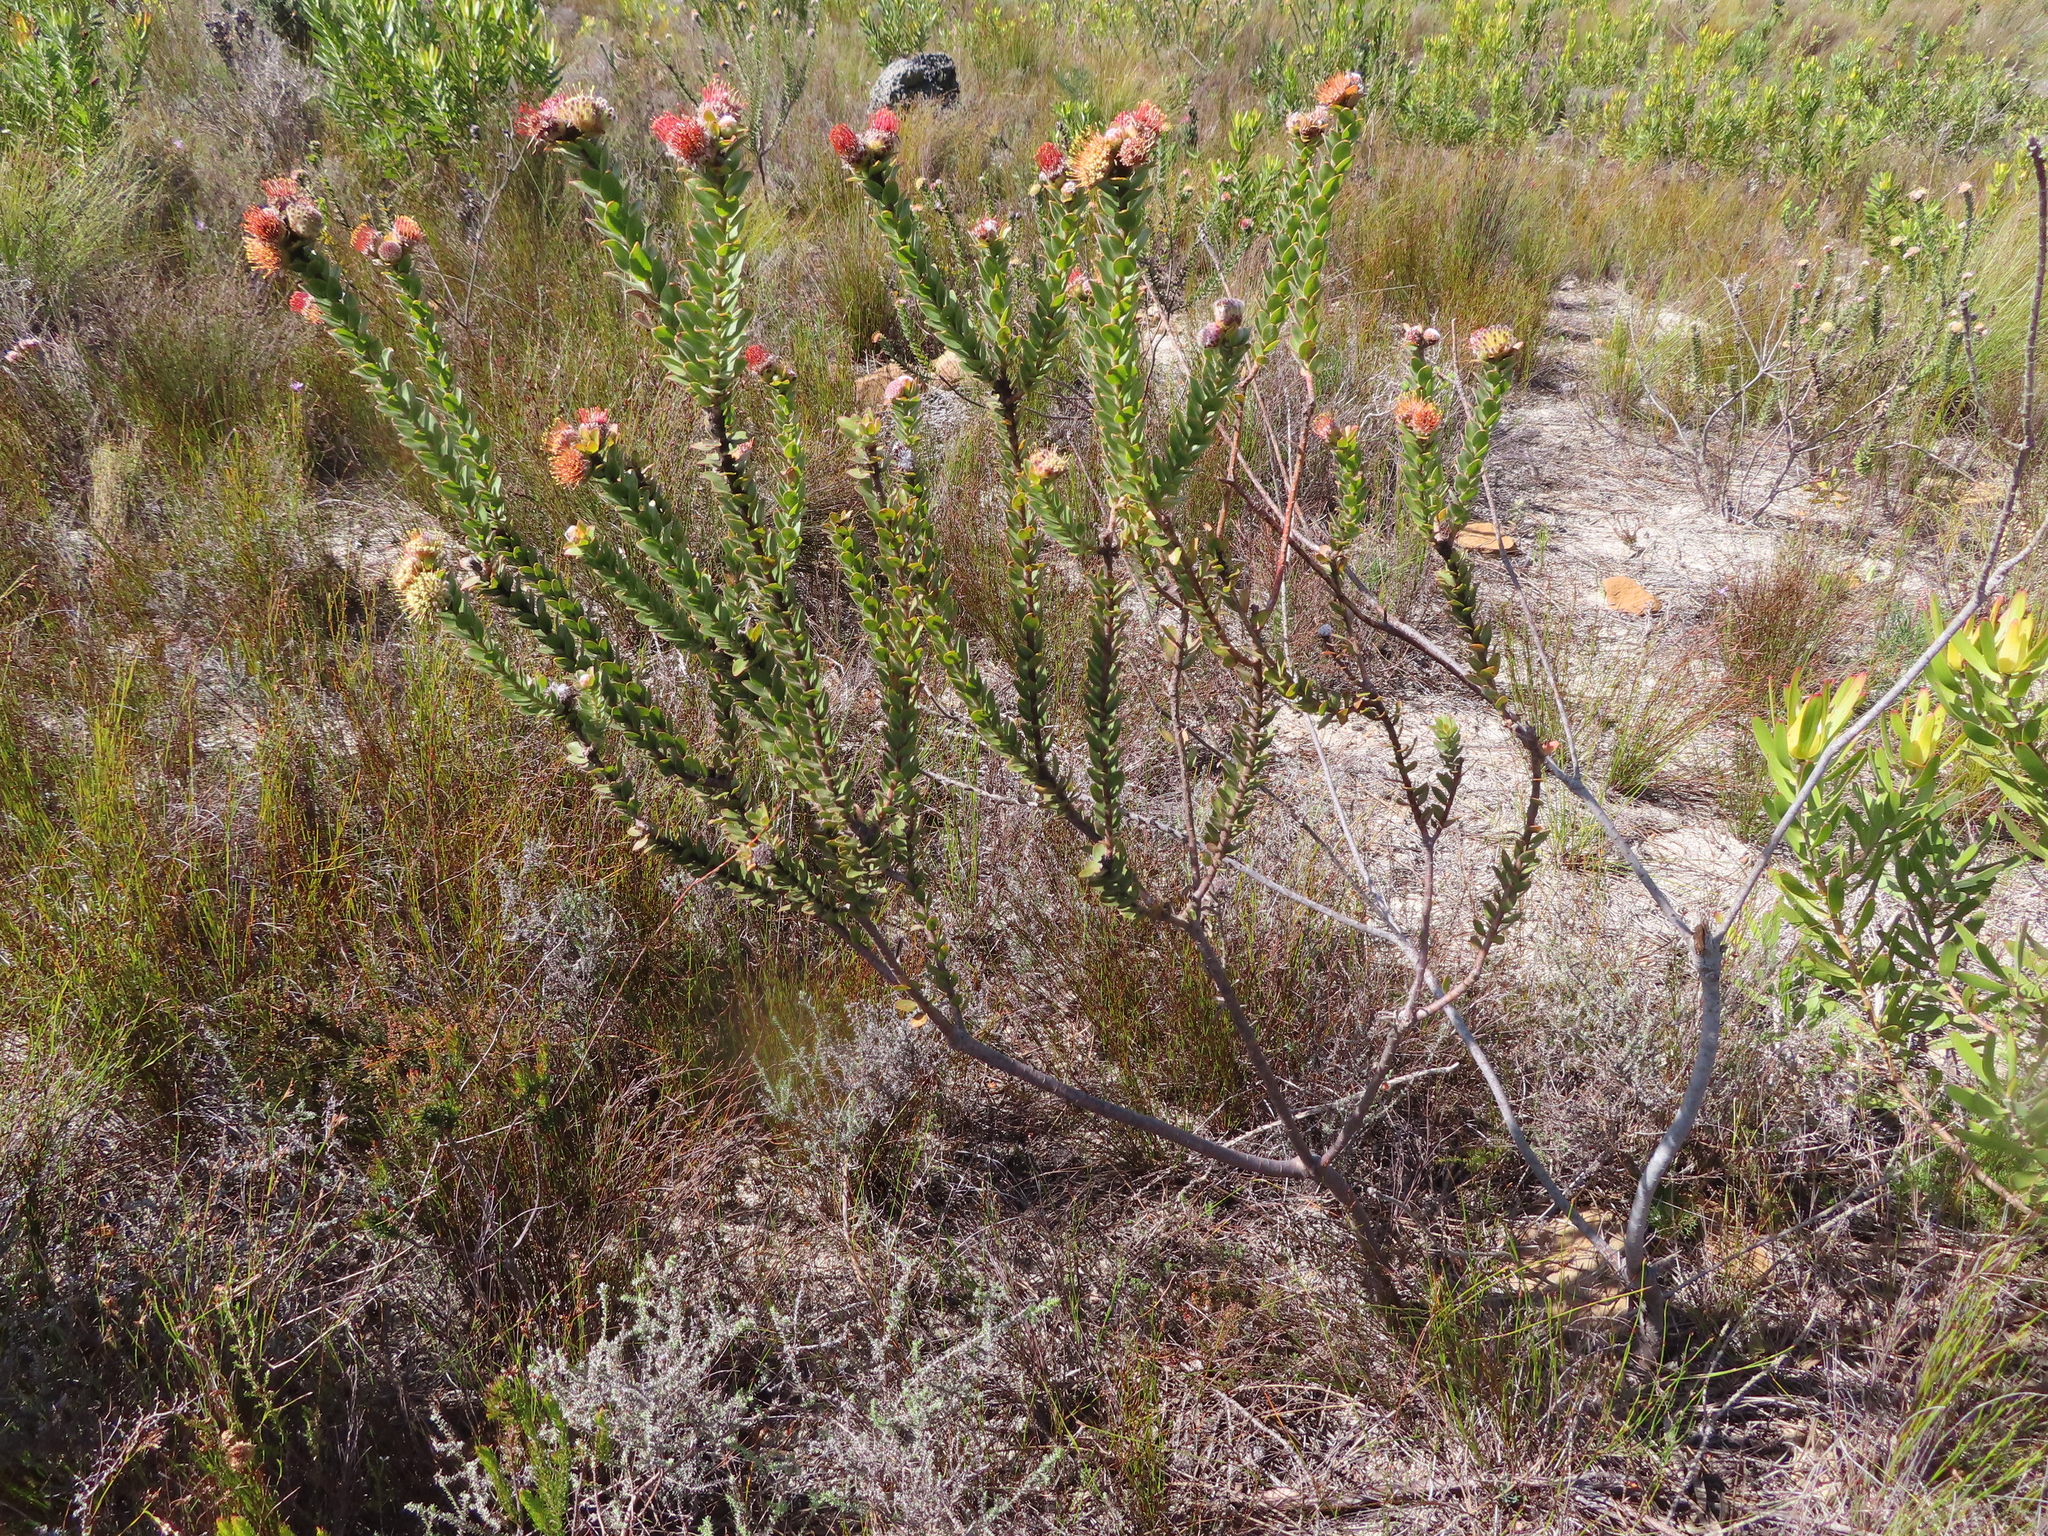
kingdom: Plantae
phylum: Tracheophyta
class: Magnoliopsida
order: Proteales
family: Proteaceae
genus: Leucospermum
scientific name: Leucospermum truncatulum
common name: Oval-leaf pincushion
